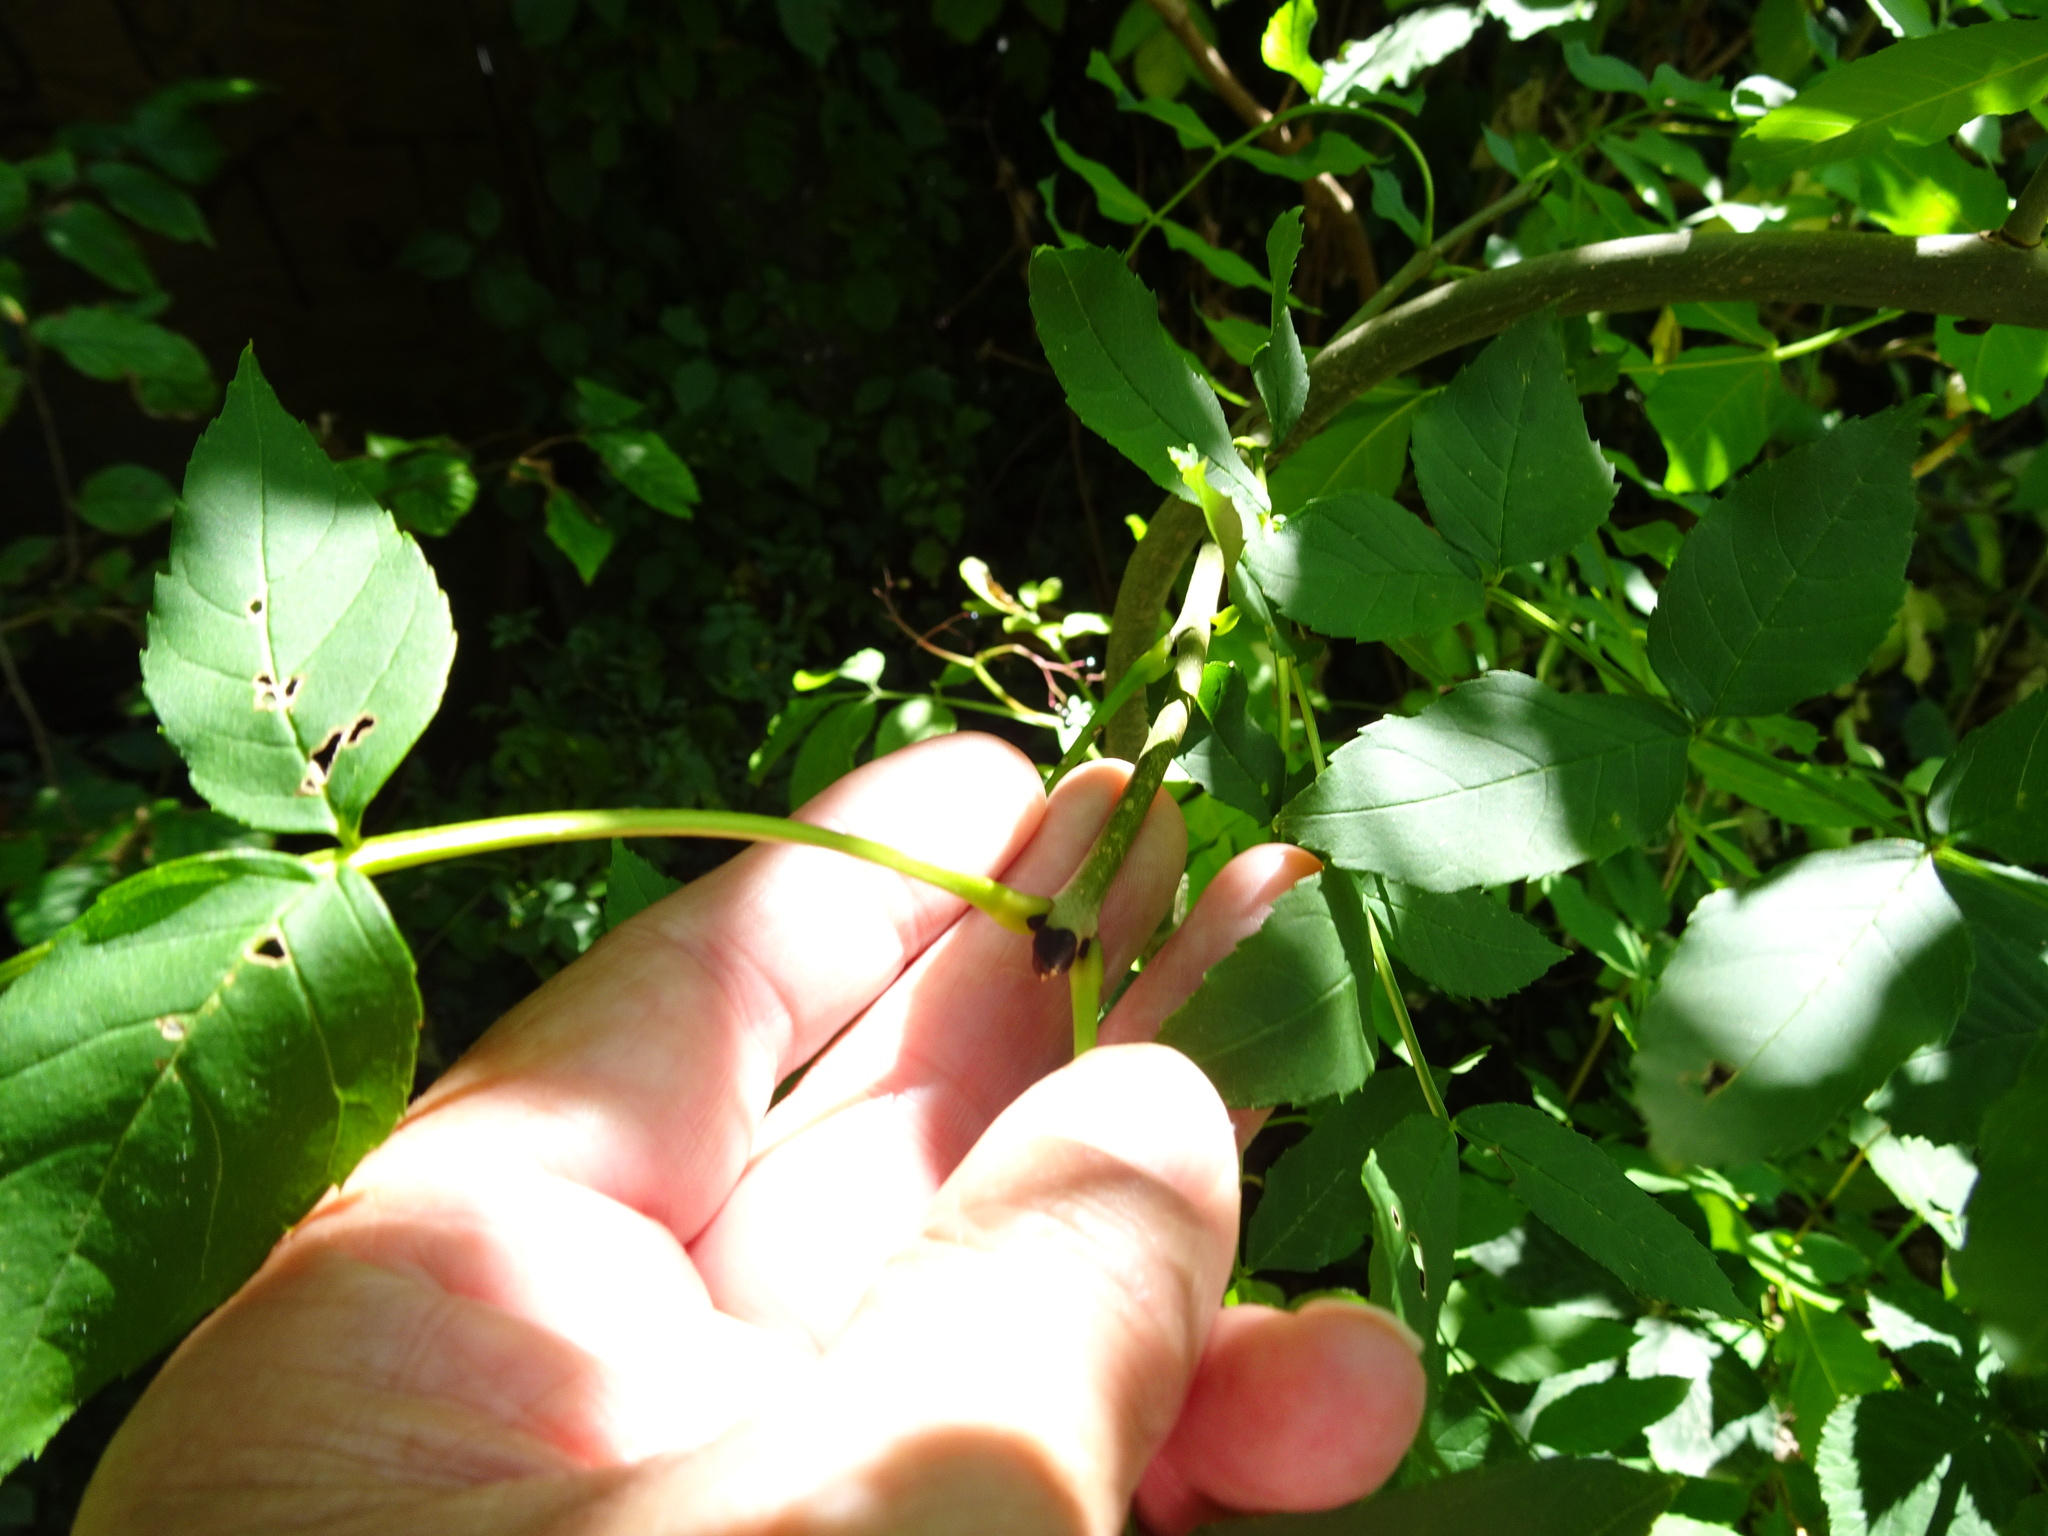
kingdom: Plantae
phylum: Tracheophyta
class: Magnoliopsida
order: Lamiales
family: Oleaceae
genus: Fraxinus
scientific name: Fraxinus excelsior
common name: European ash
